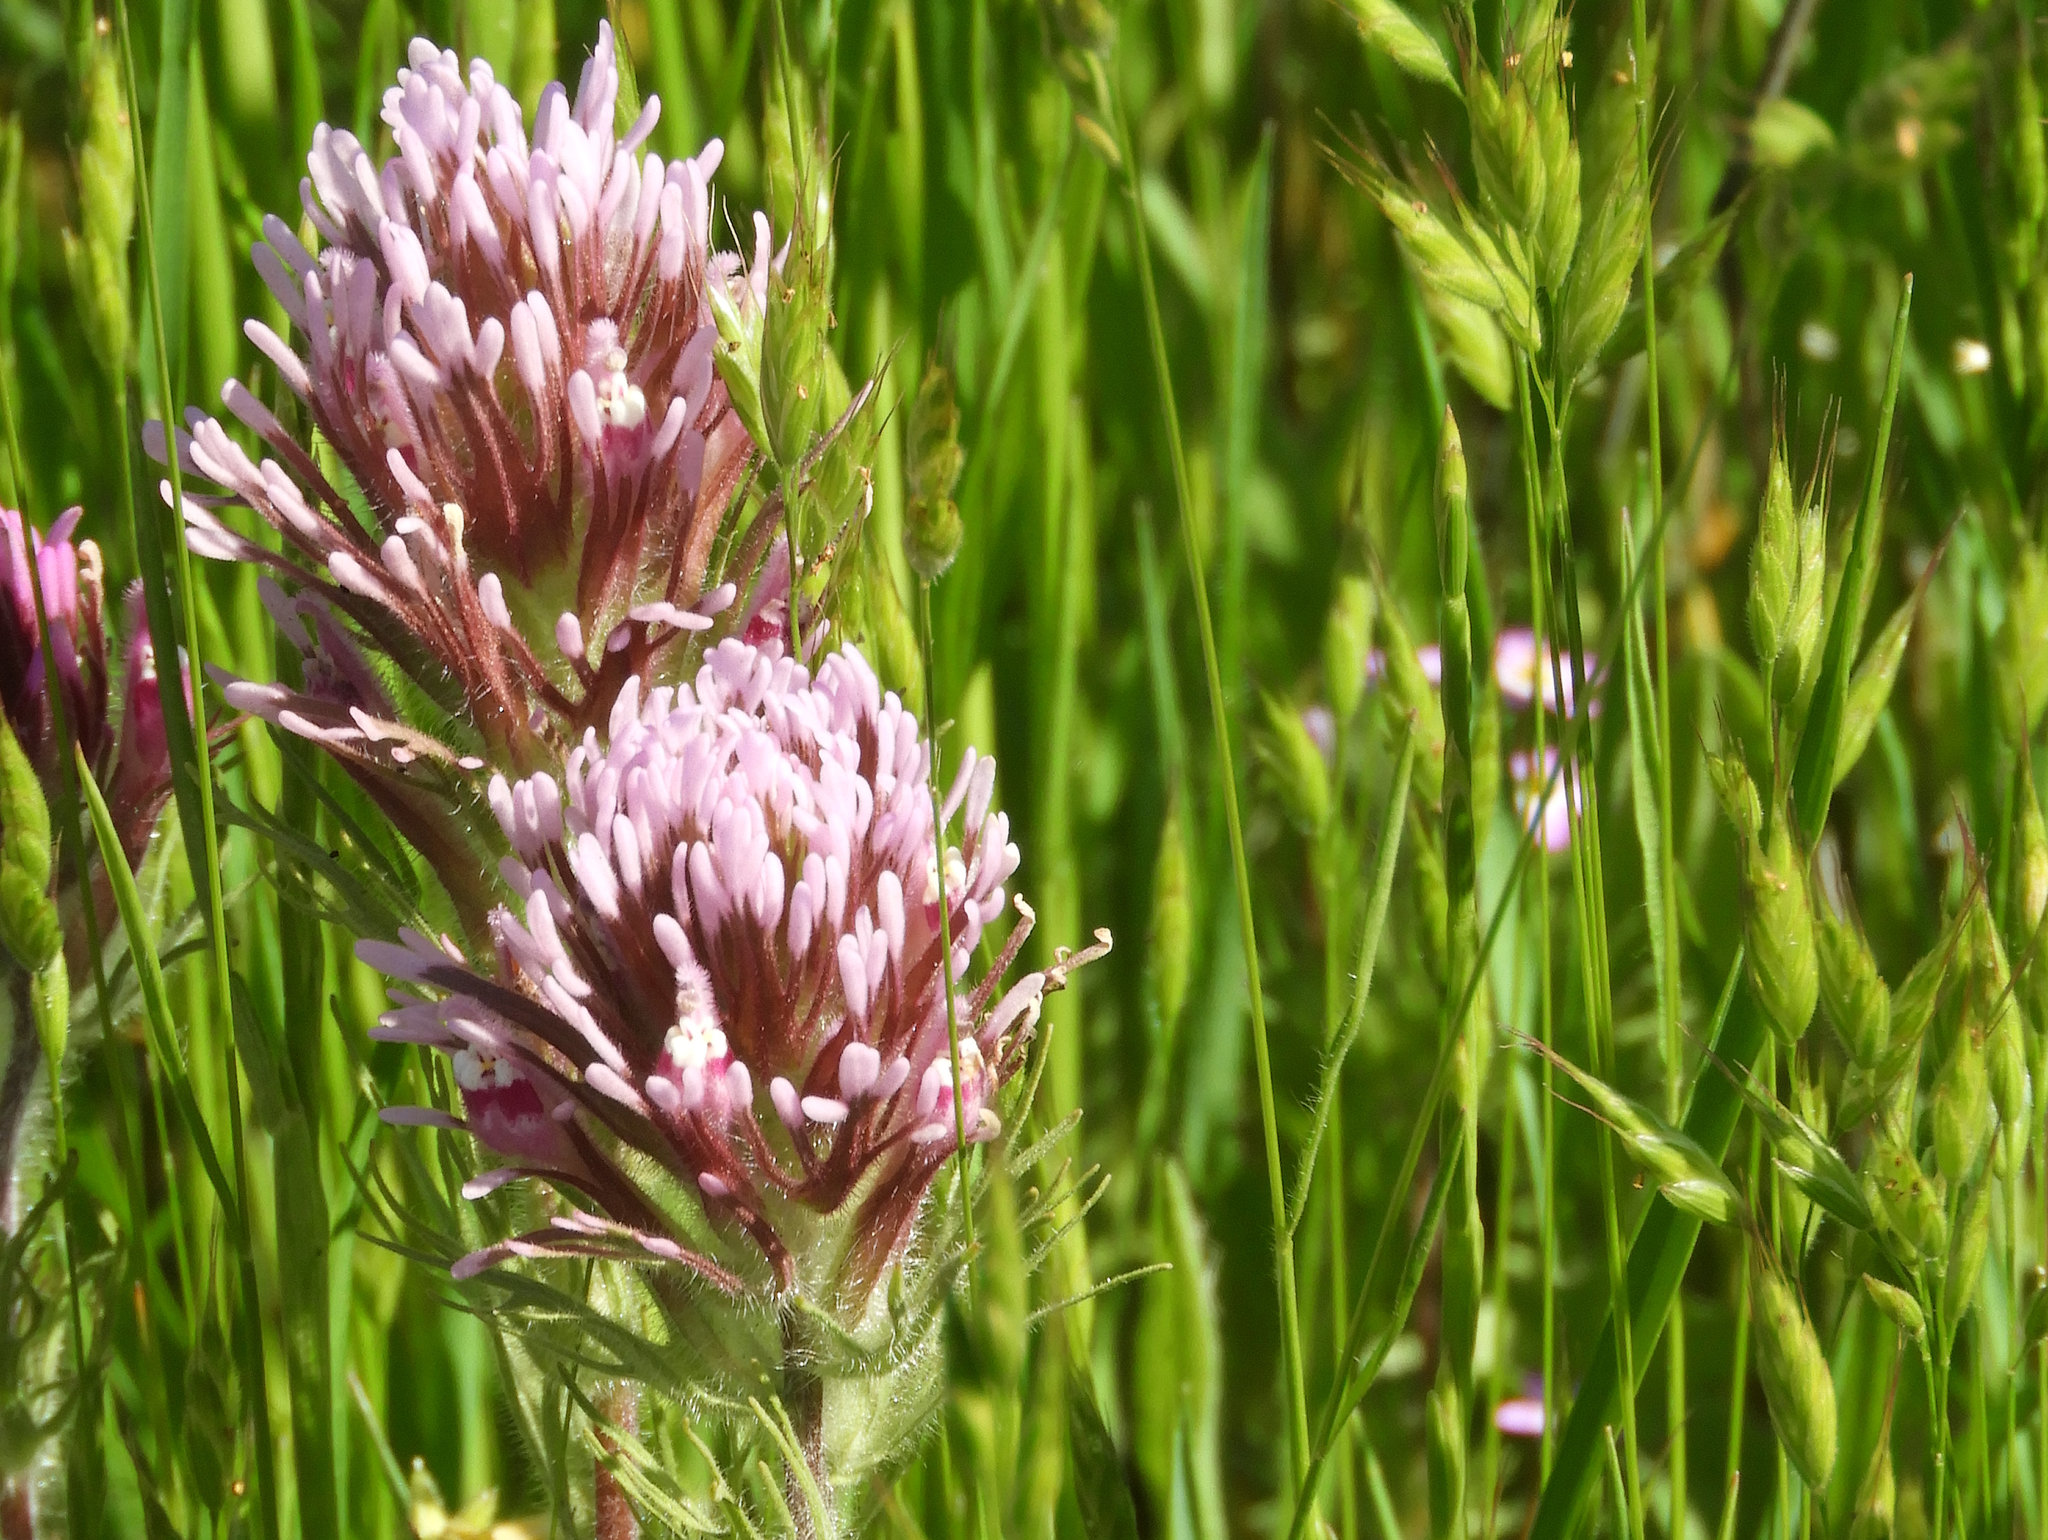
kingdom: Plantae
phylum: Tracheophyta
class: Magnoliopsida
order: Lamiales
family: Orobanchaceae
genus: Castilleja
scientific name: Castilleja exserta
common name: Purple owl-clover
